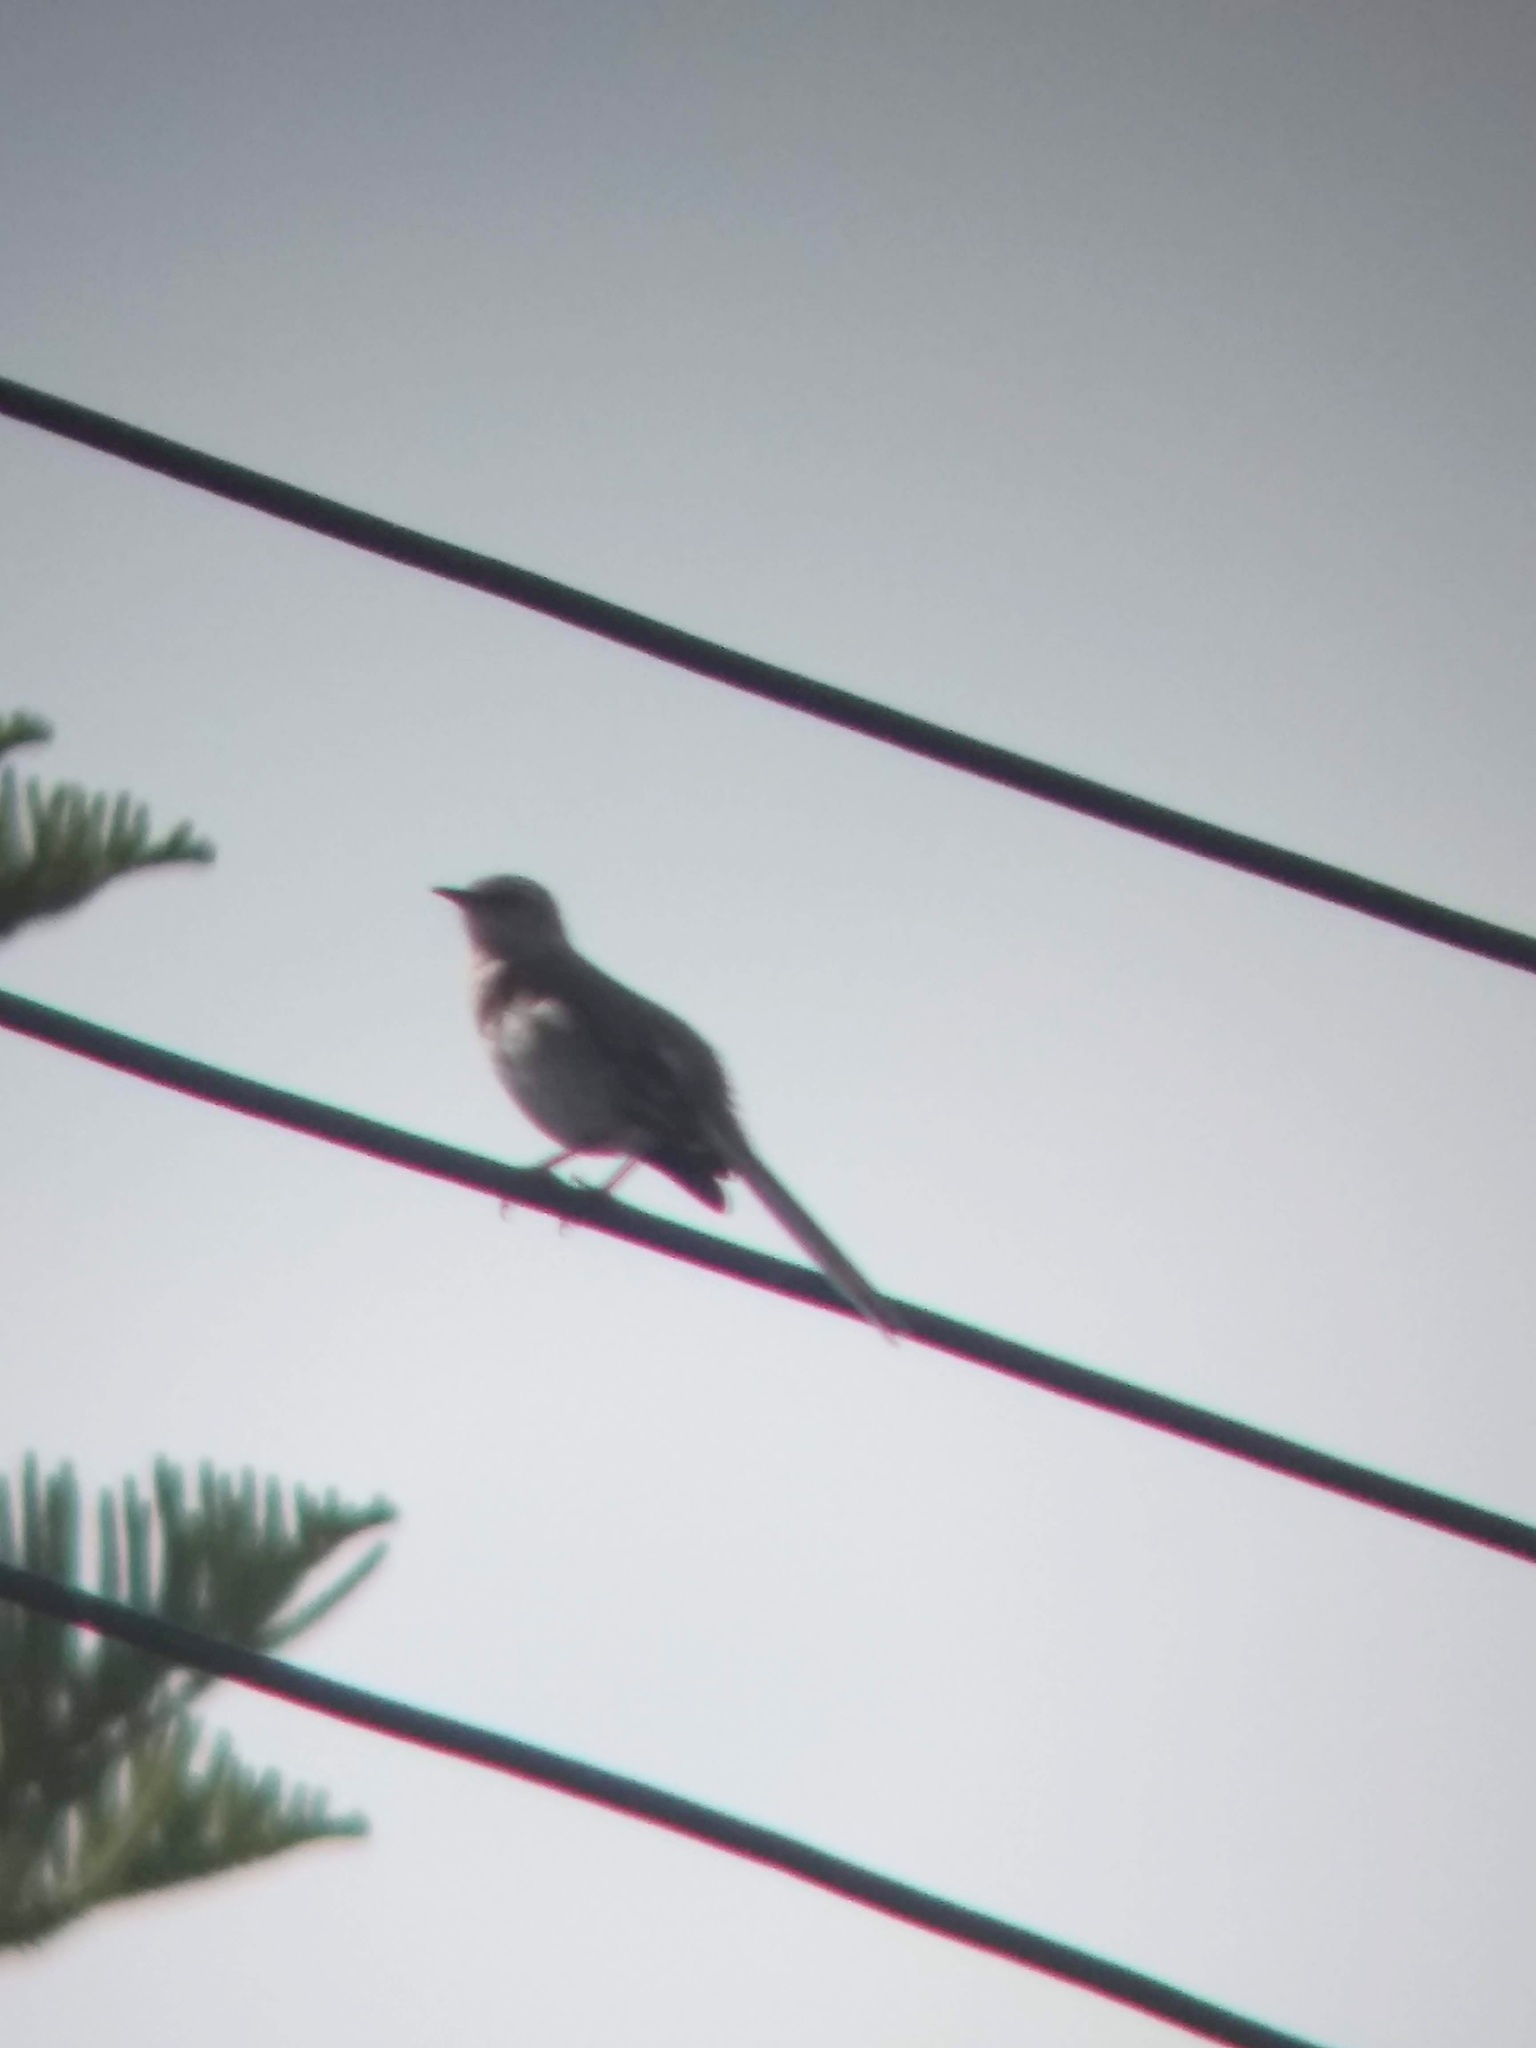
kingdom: Animalia
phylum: Chordata
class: Aves
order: Passeriformes
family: Mimidae
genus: Mimus
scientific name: Mimus polyglottos
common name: Northern mockingbird
